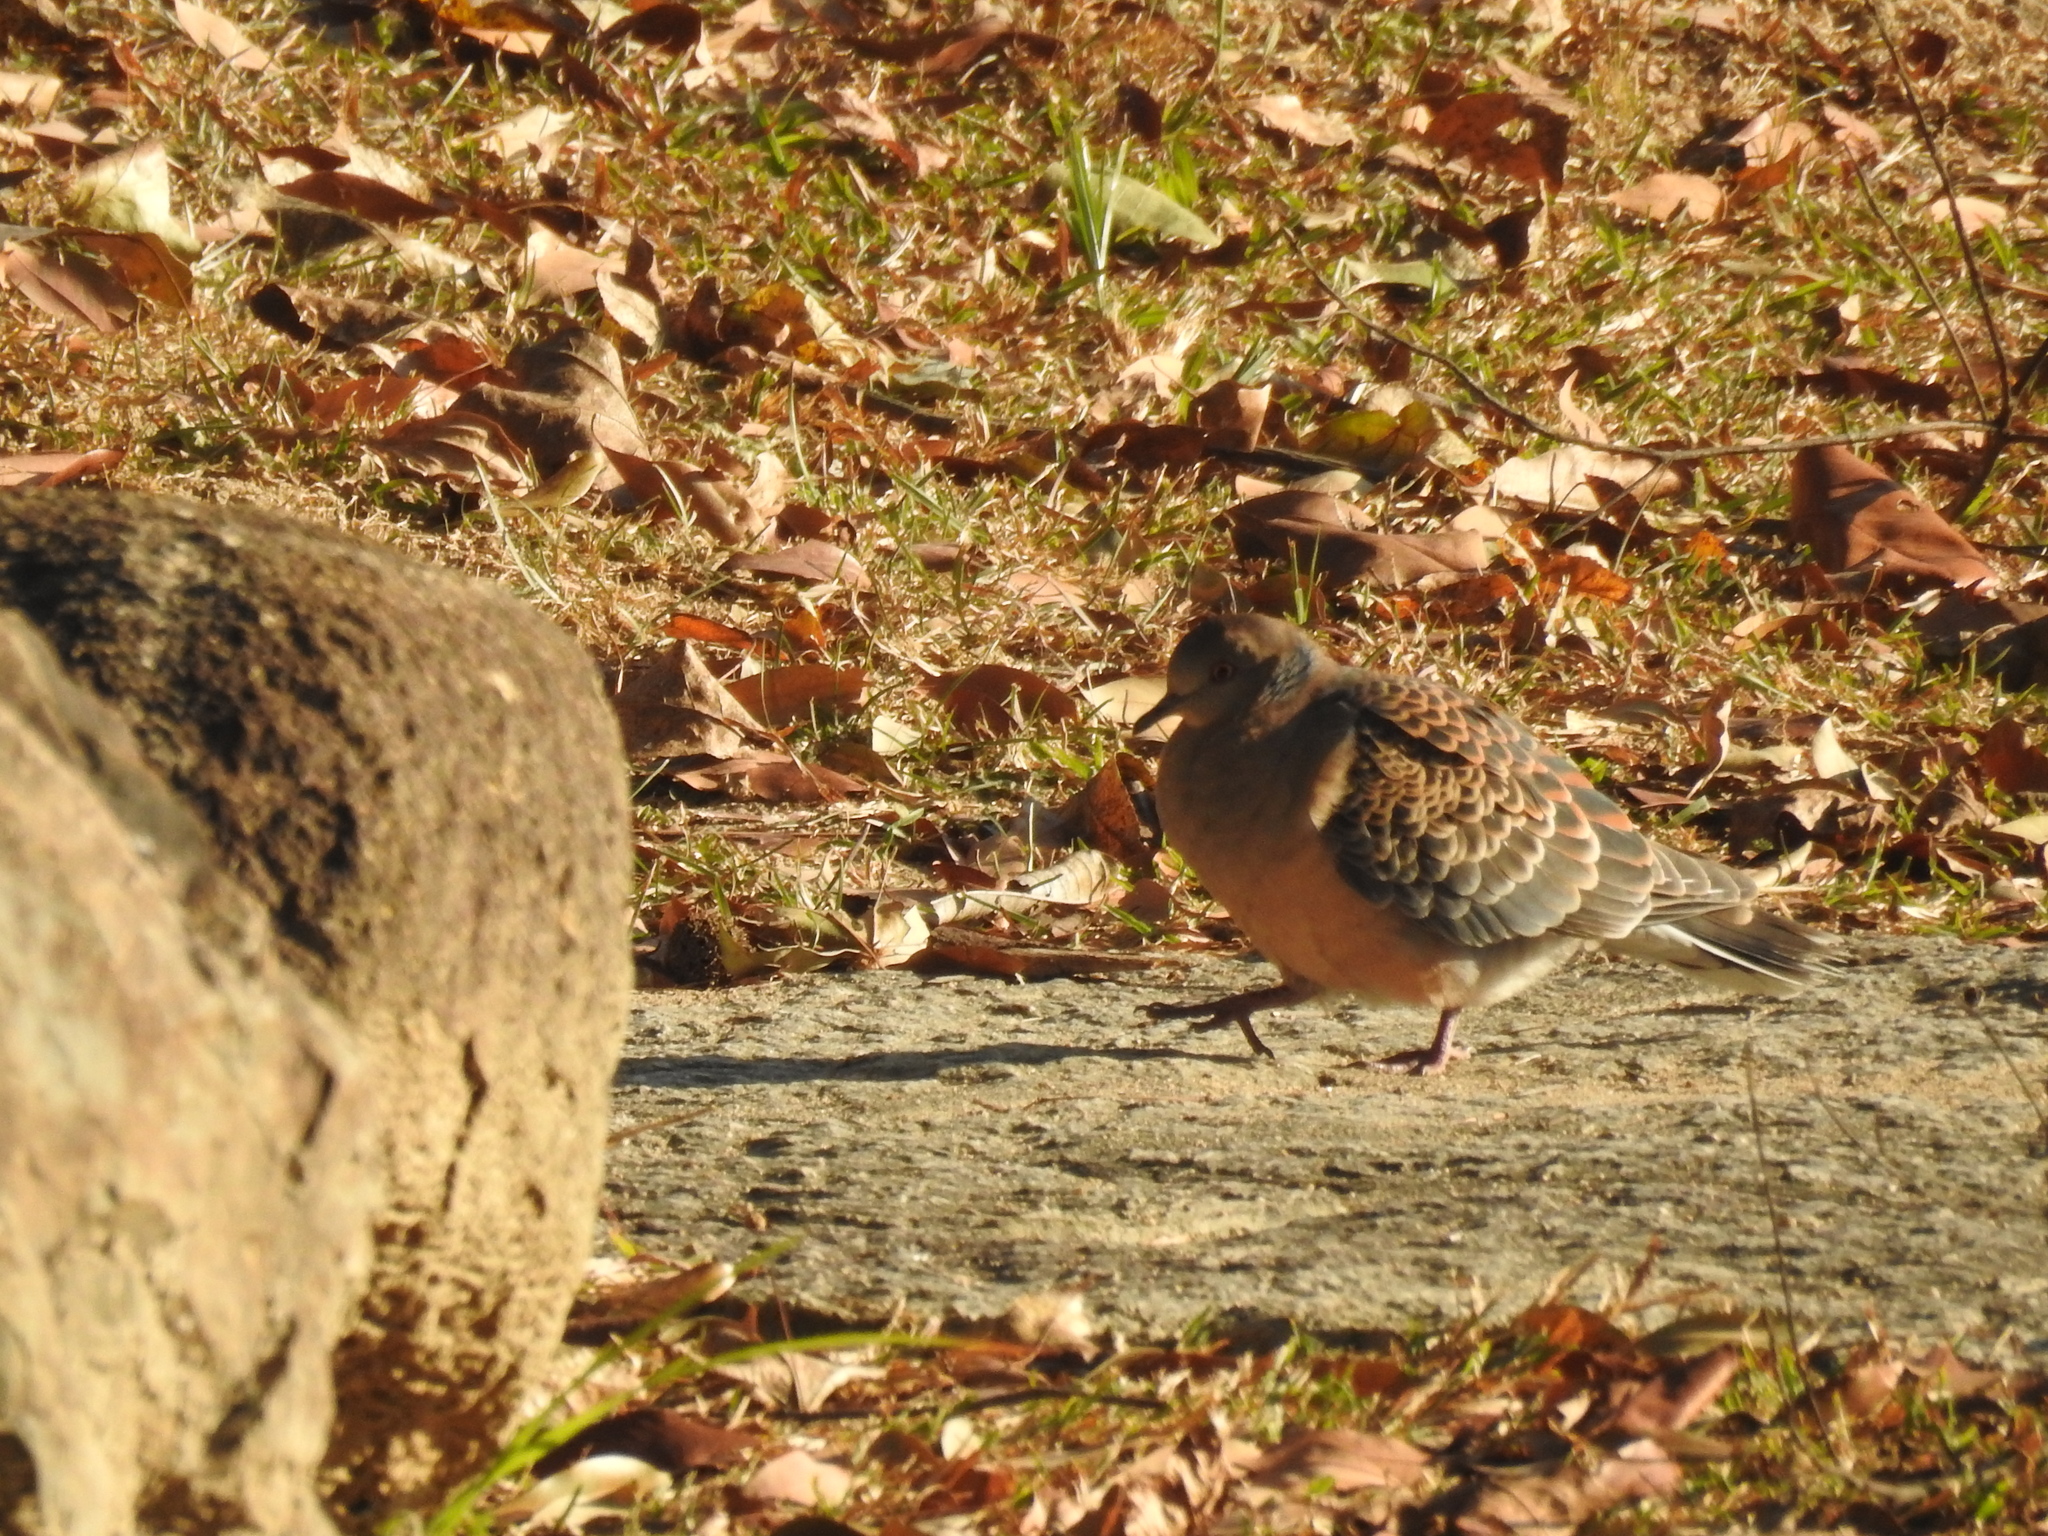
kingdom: Animalia
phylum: Chordata
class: Aves
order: Columbiformes
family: Columbidae
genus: Streptopelia
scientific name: Streptopelia orientalis
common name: Oriental turtle dove
